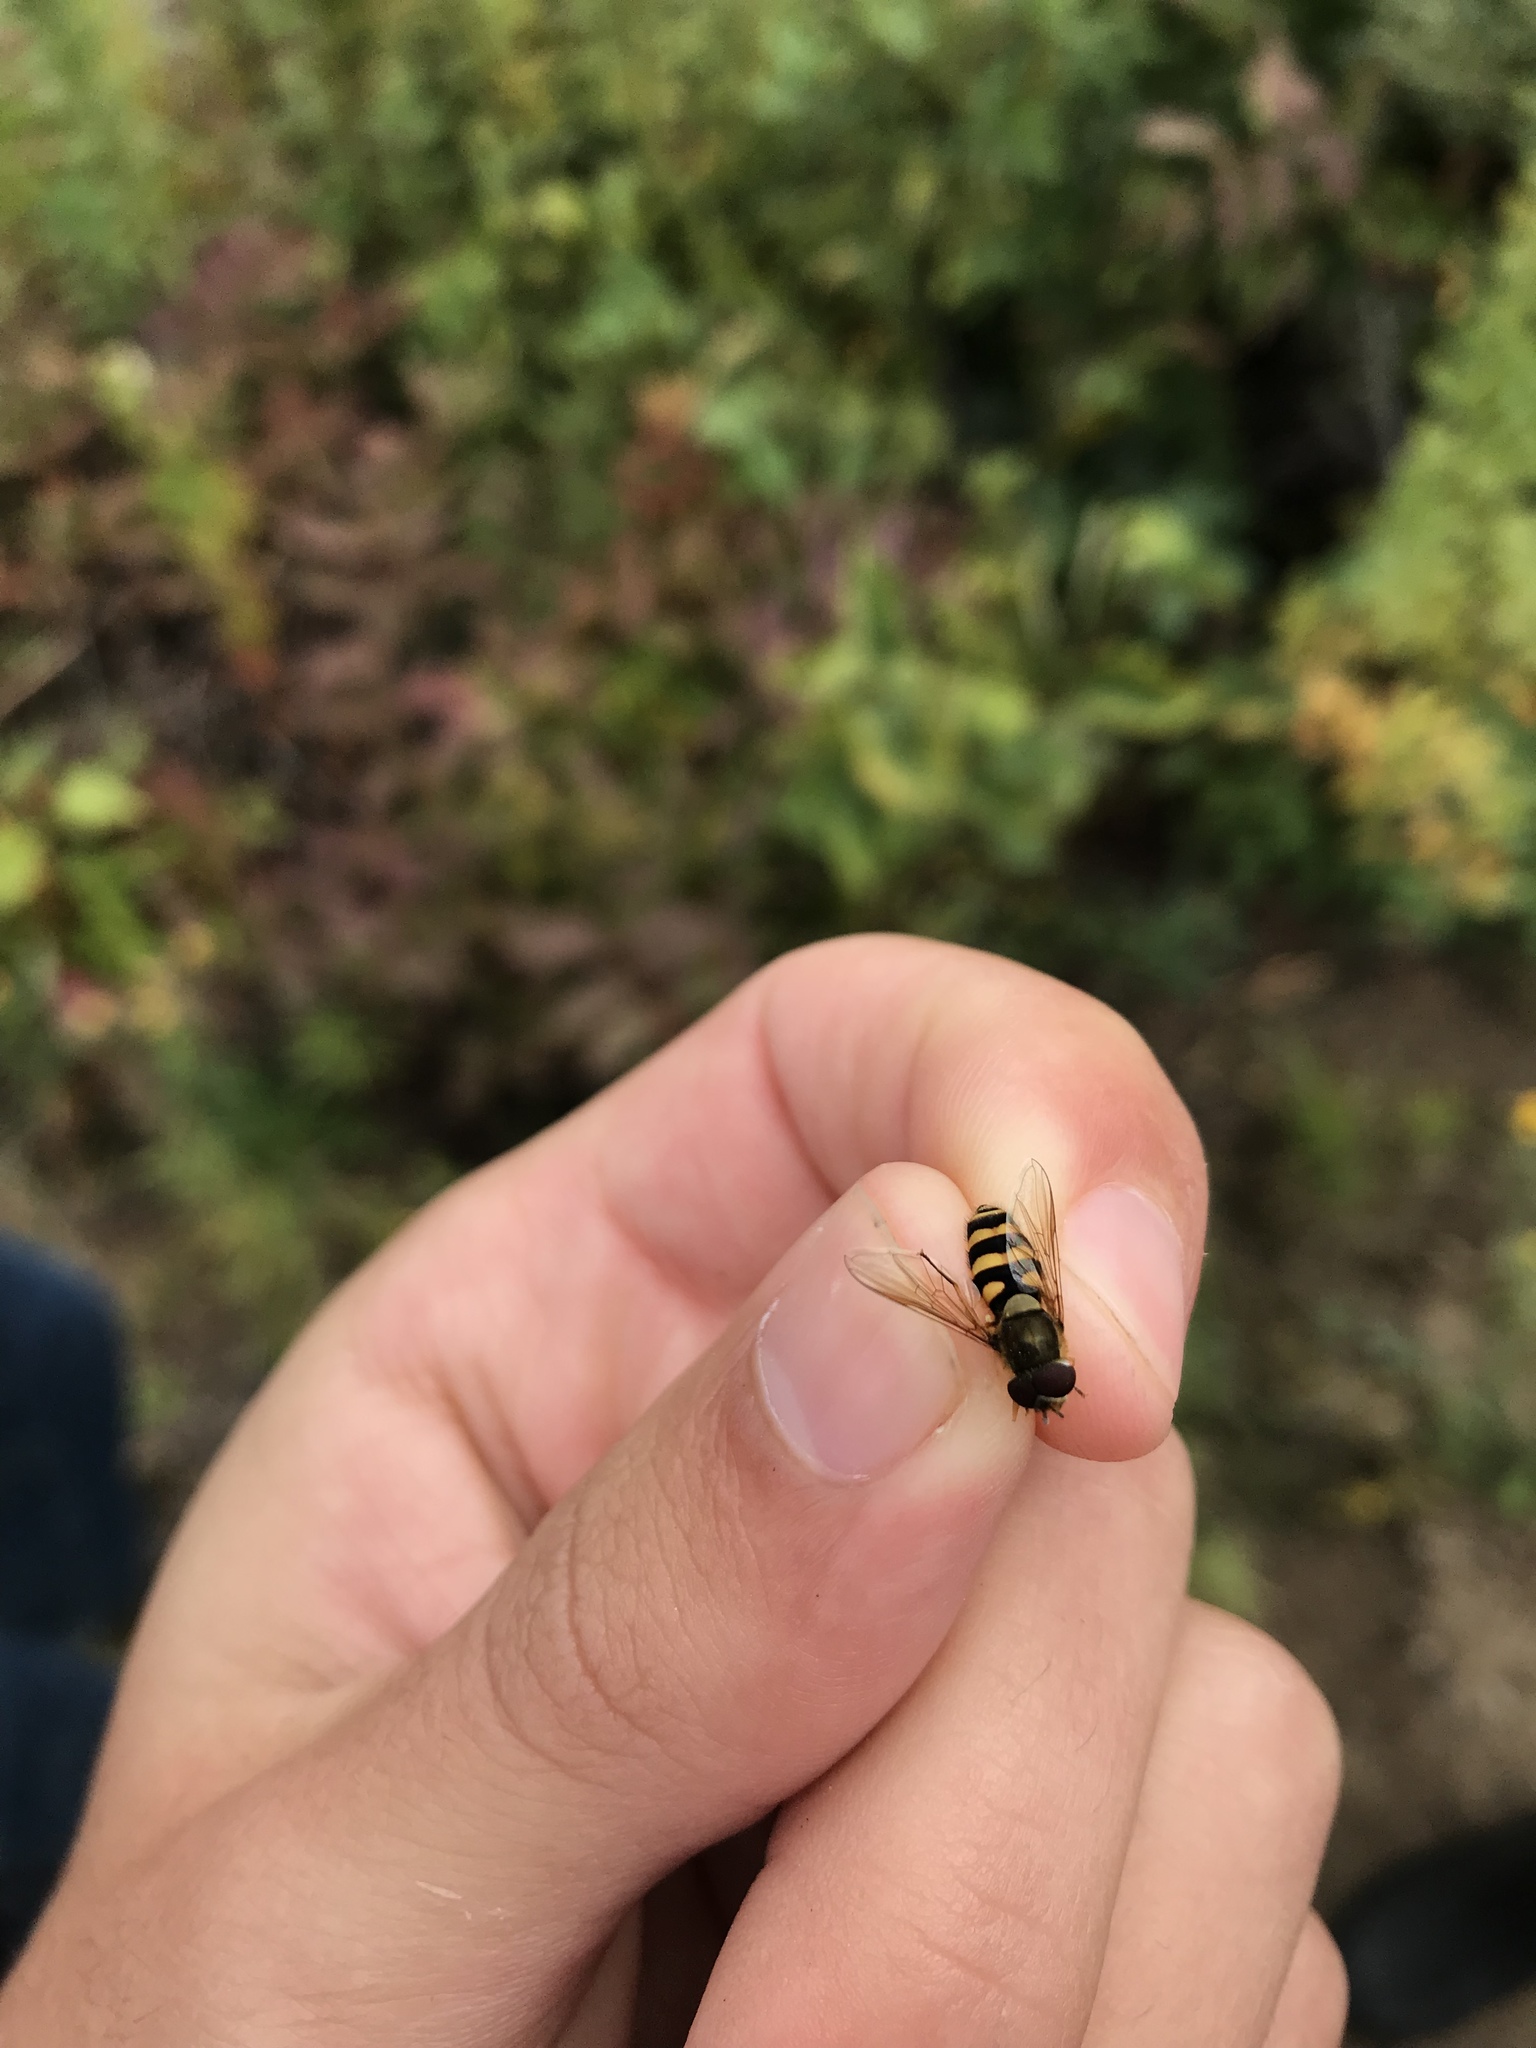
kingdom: Animalia
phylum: Arthropoda
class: Insecta
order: Diptera
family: Syrphidae
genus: Syrphus
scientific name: Syrphus
